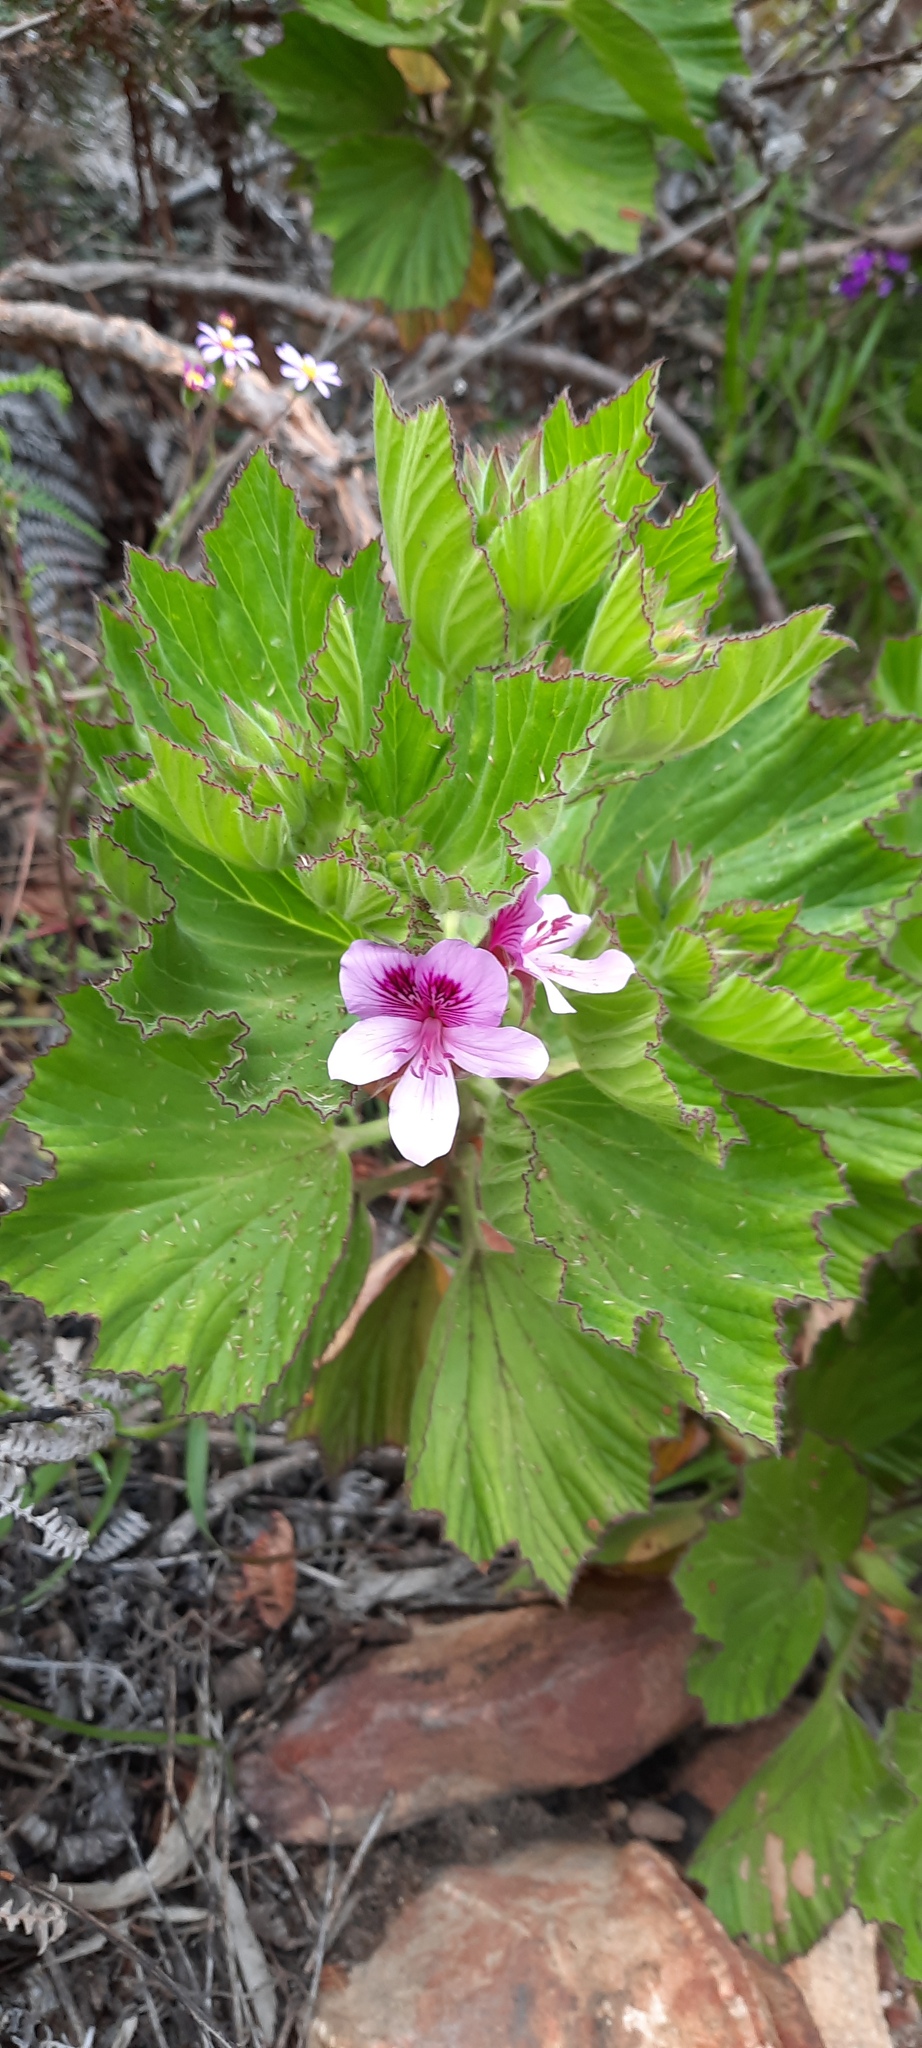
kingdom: Plantae
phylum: Tracheophyta
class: Magnoliopsida
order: Geraniales
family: Geraniaceae
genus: Pelargonium
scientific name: Pelargonium cucullatum
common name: Tree pelargonium
